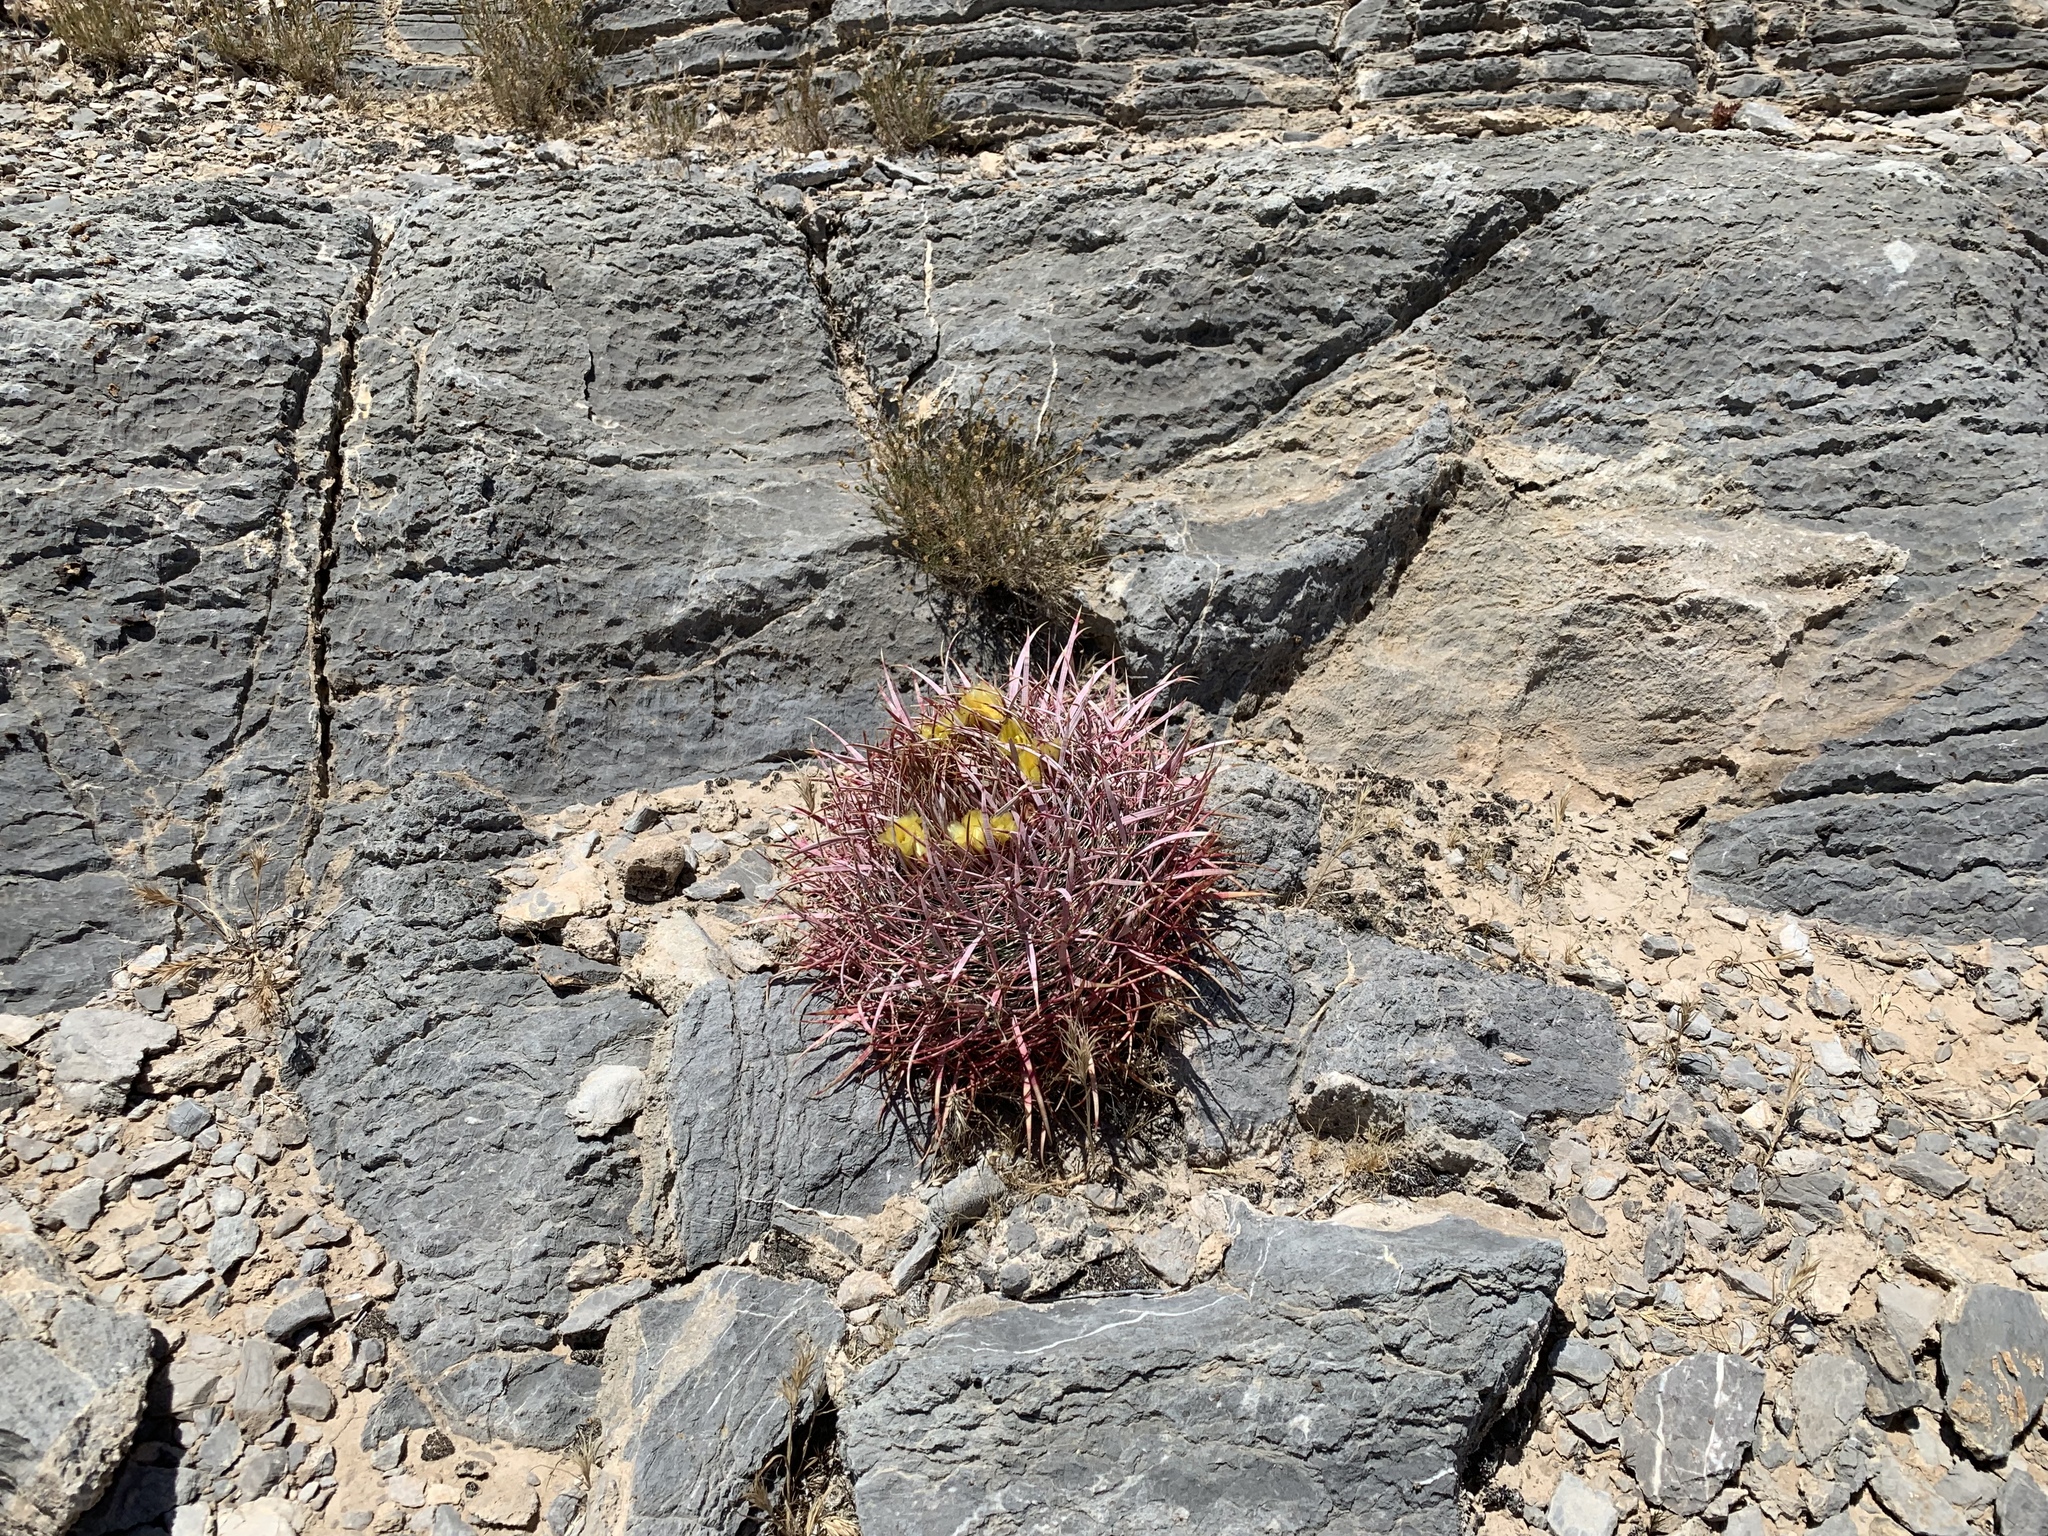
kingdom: Plantae
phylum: Tracheophyta
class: Magnoliopsida
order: Caryophyllales
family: Cactaceae
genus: Ferocactus
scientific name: Ferocactus cylindraceus
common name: California barrel cactus
